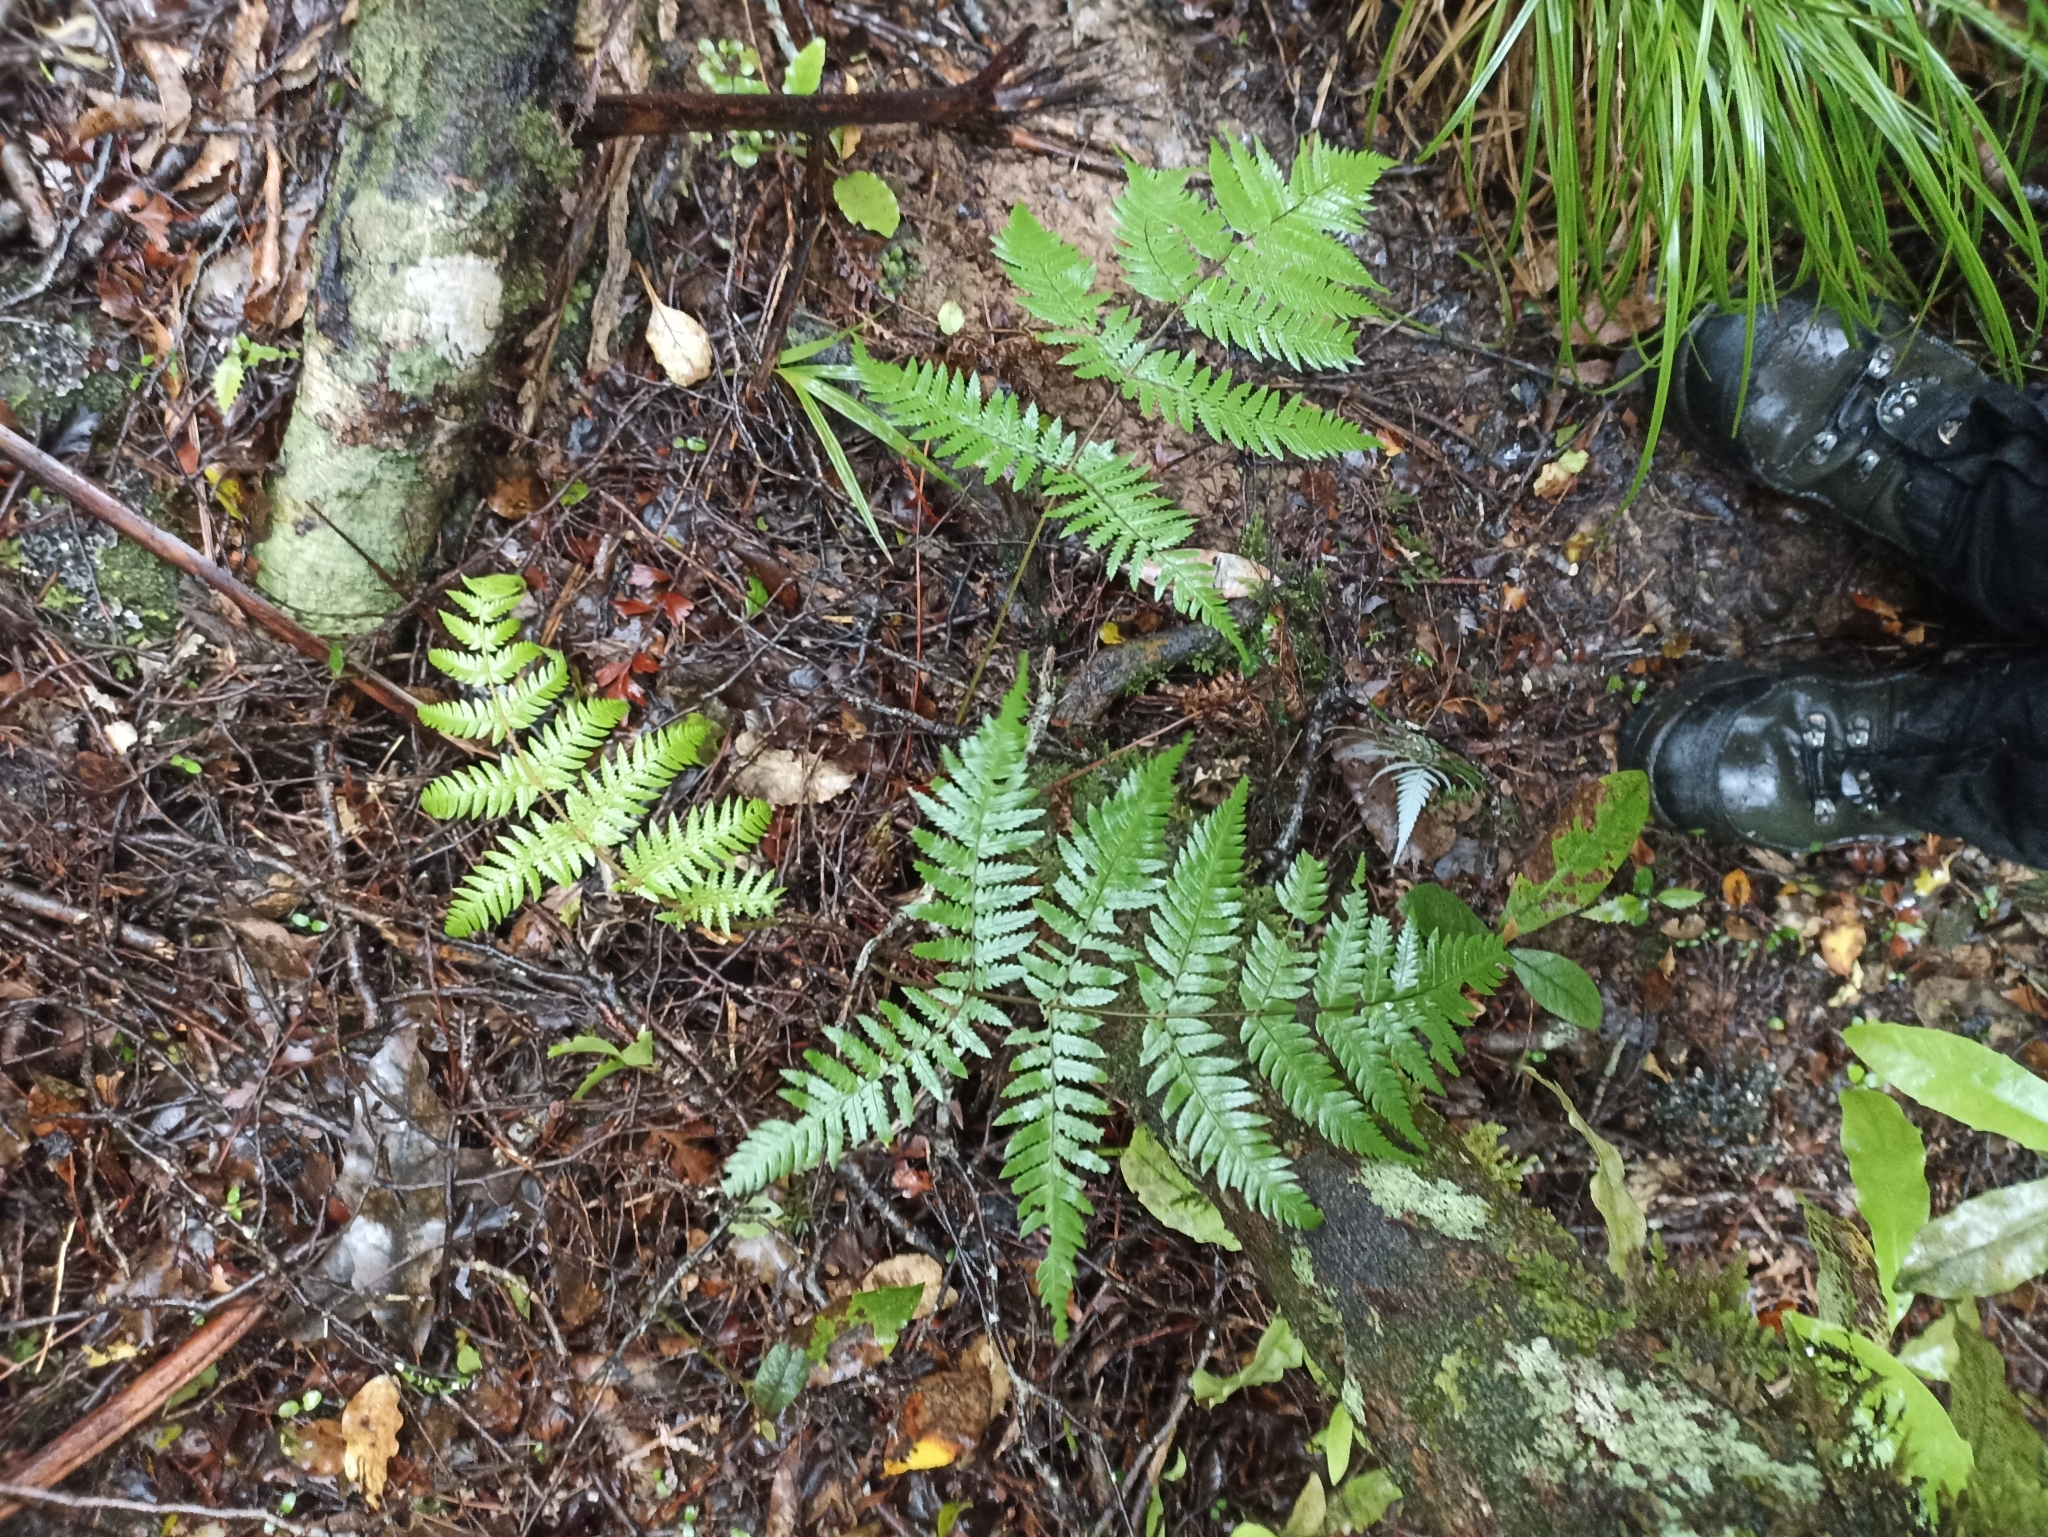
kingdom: Plantae
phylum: Tracheophyta
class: Polypodiopsida
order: Cyatheales
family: Cyatheaceae
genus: Alsophila
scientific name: Alsophila dealbata
